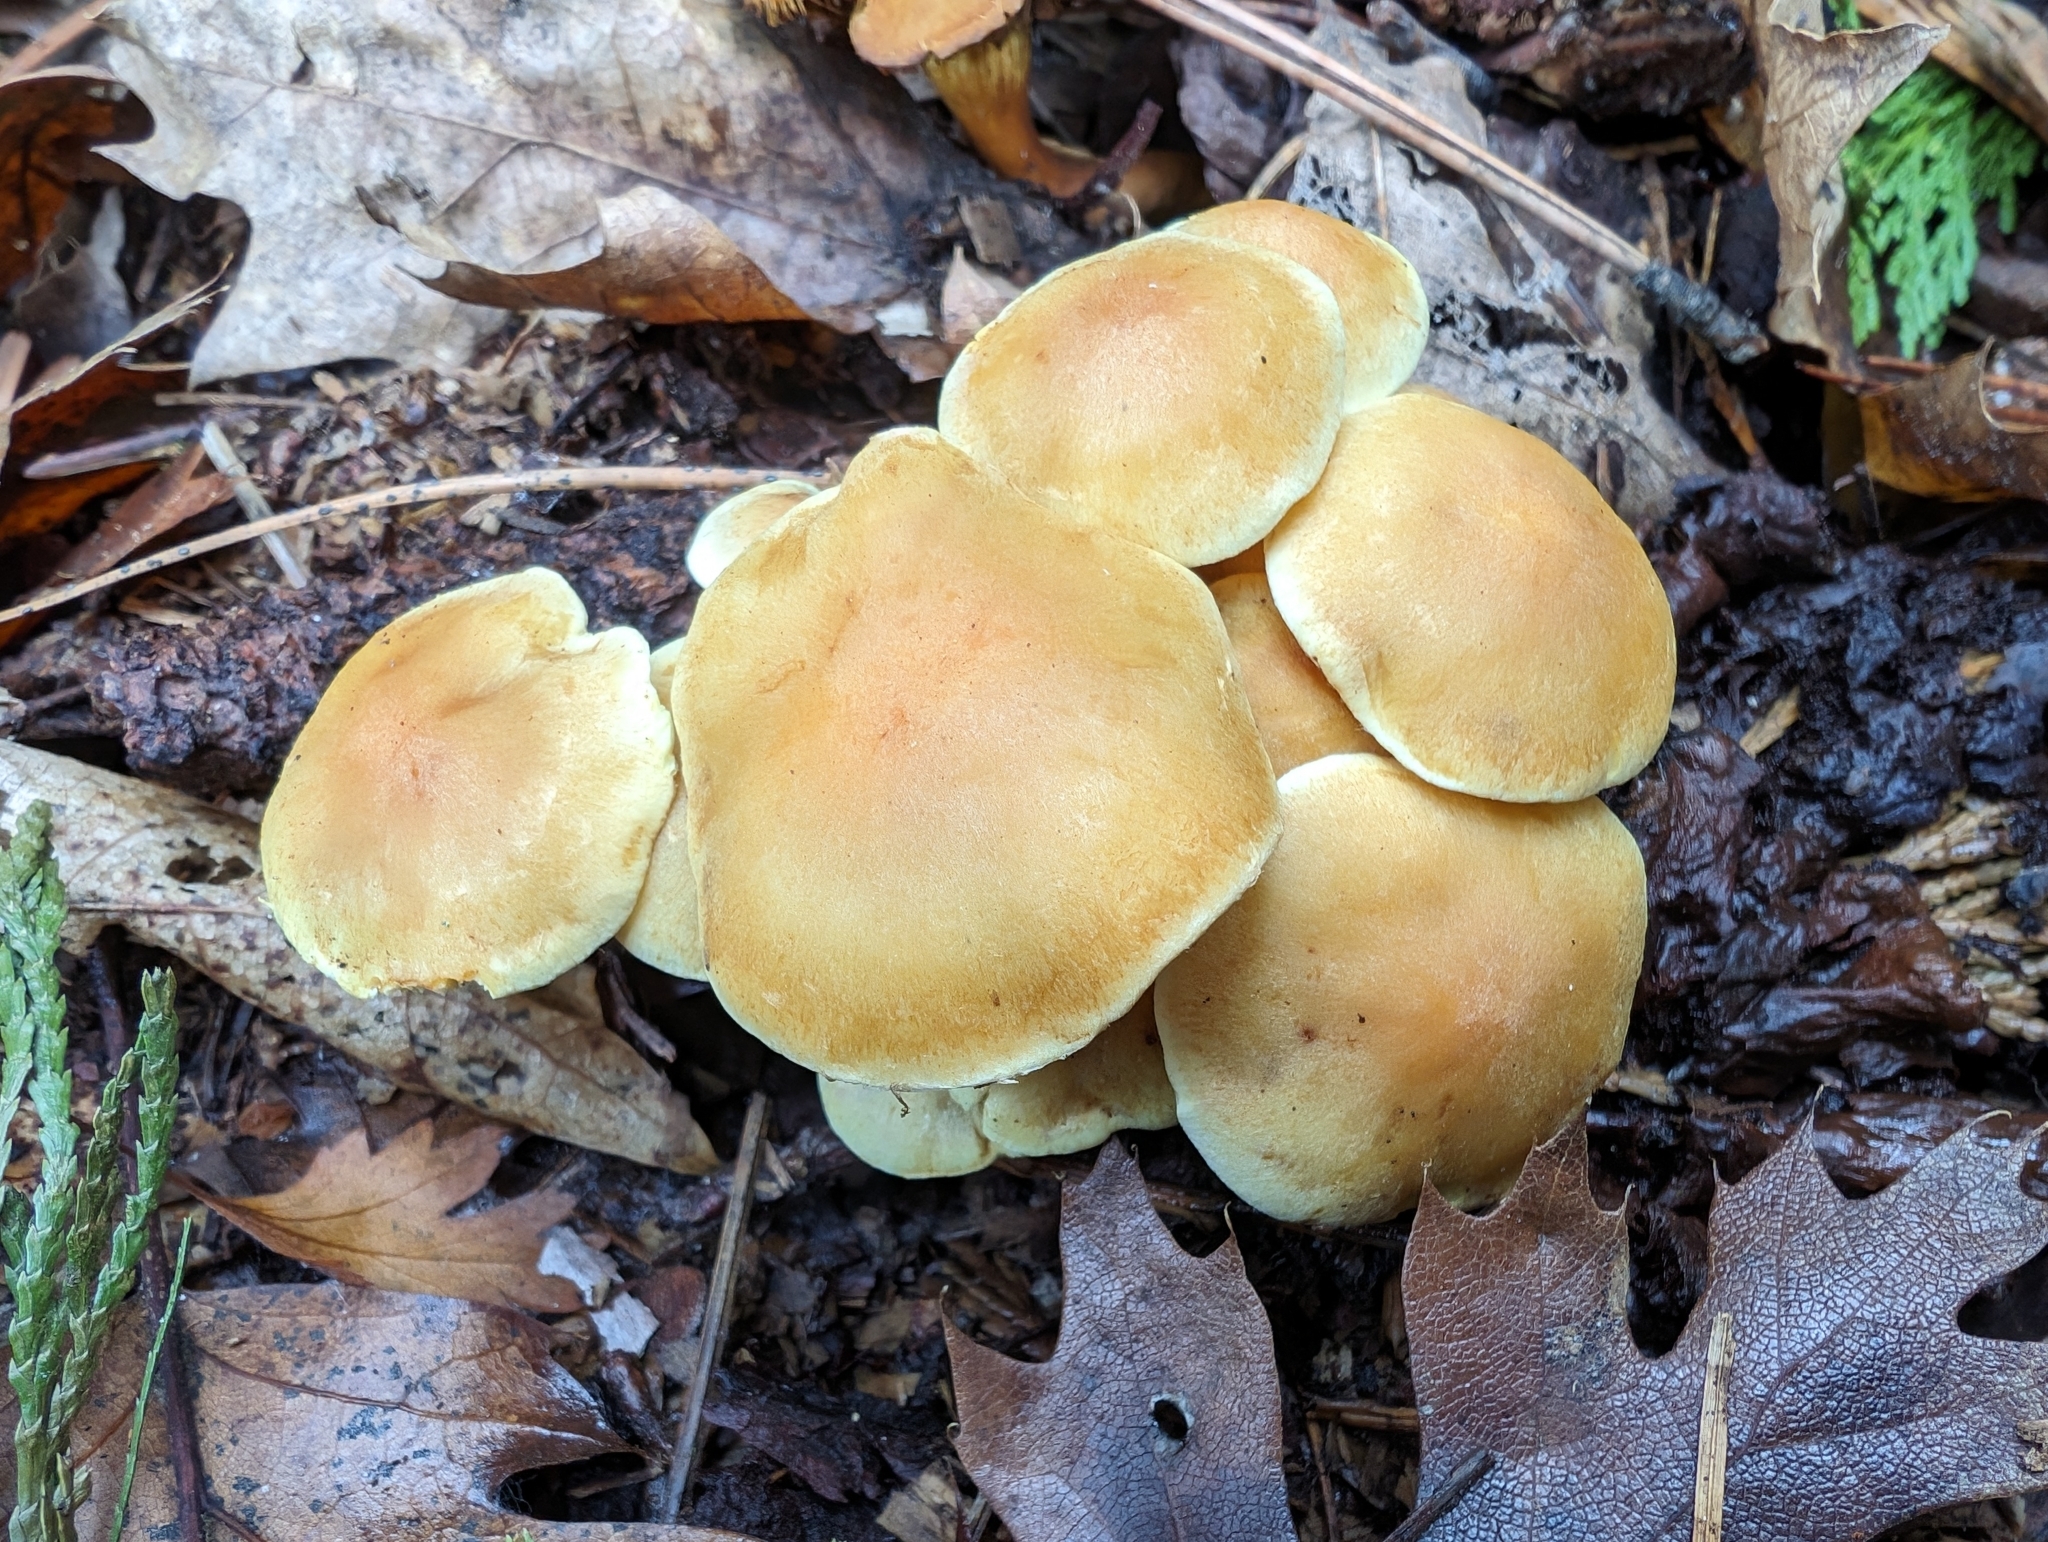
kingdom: Fungi
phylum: Basidiomycota
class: Agaricomycetes
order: Agaricales
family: Strophariaceae
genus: Hypholoma
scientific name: Hypholoma fasciculare
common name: Sulphur tuft
